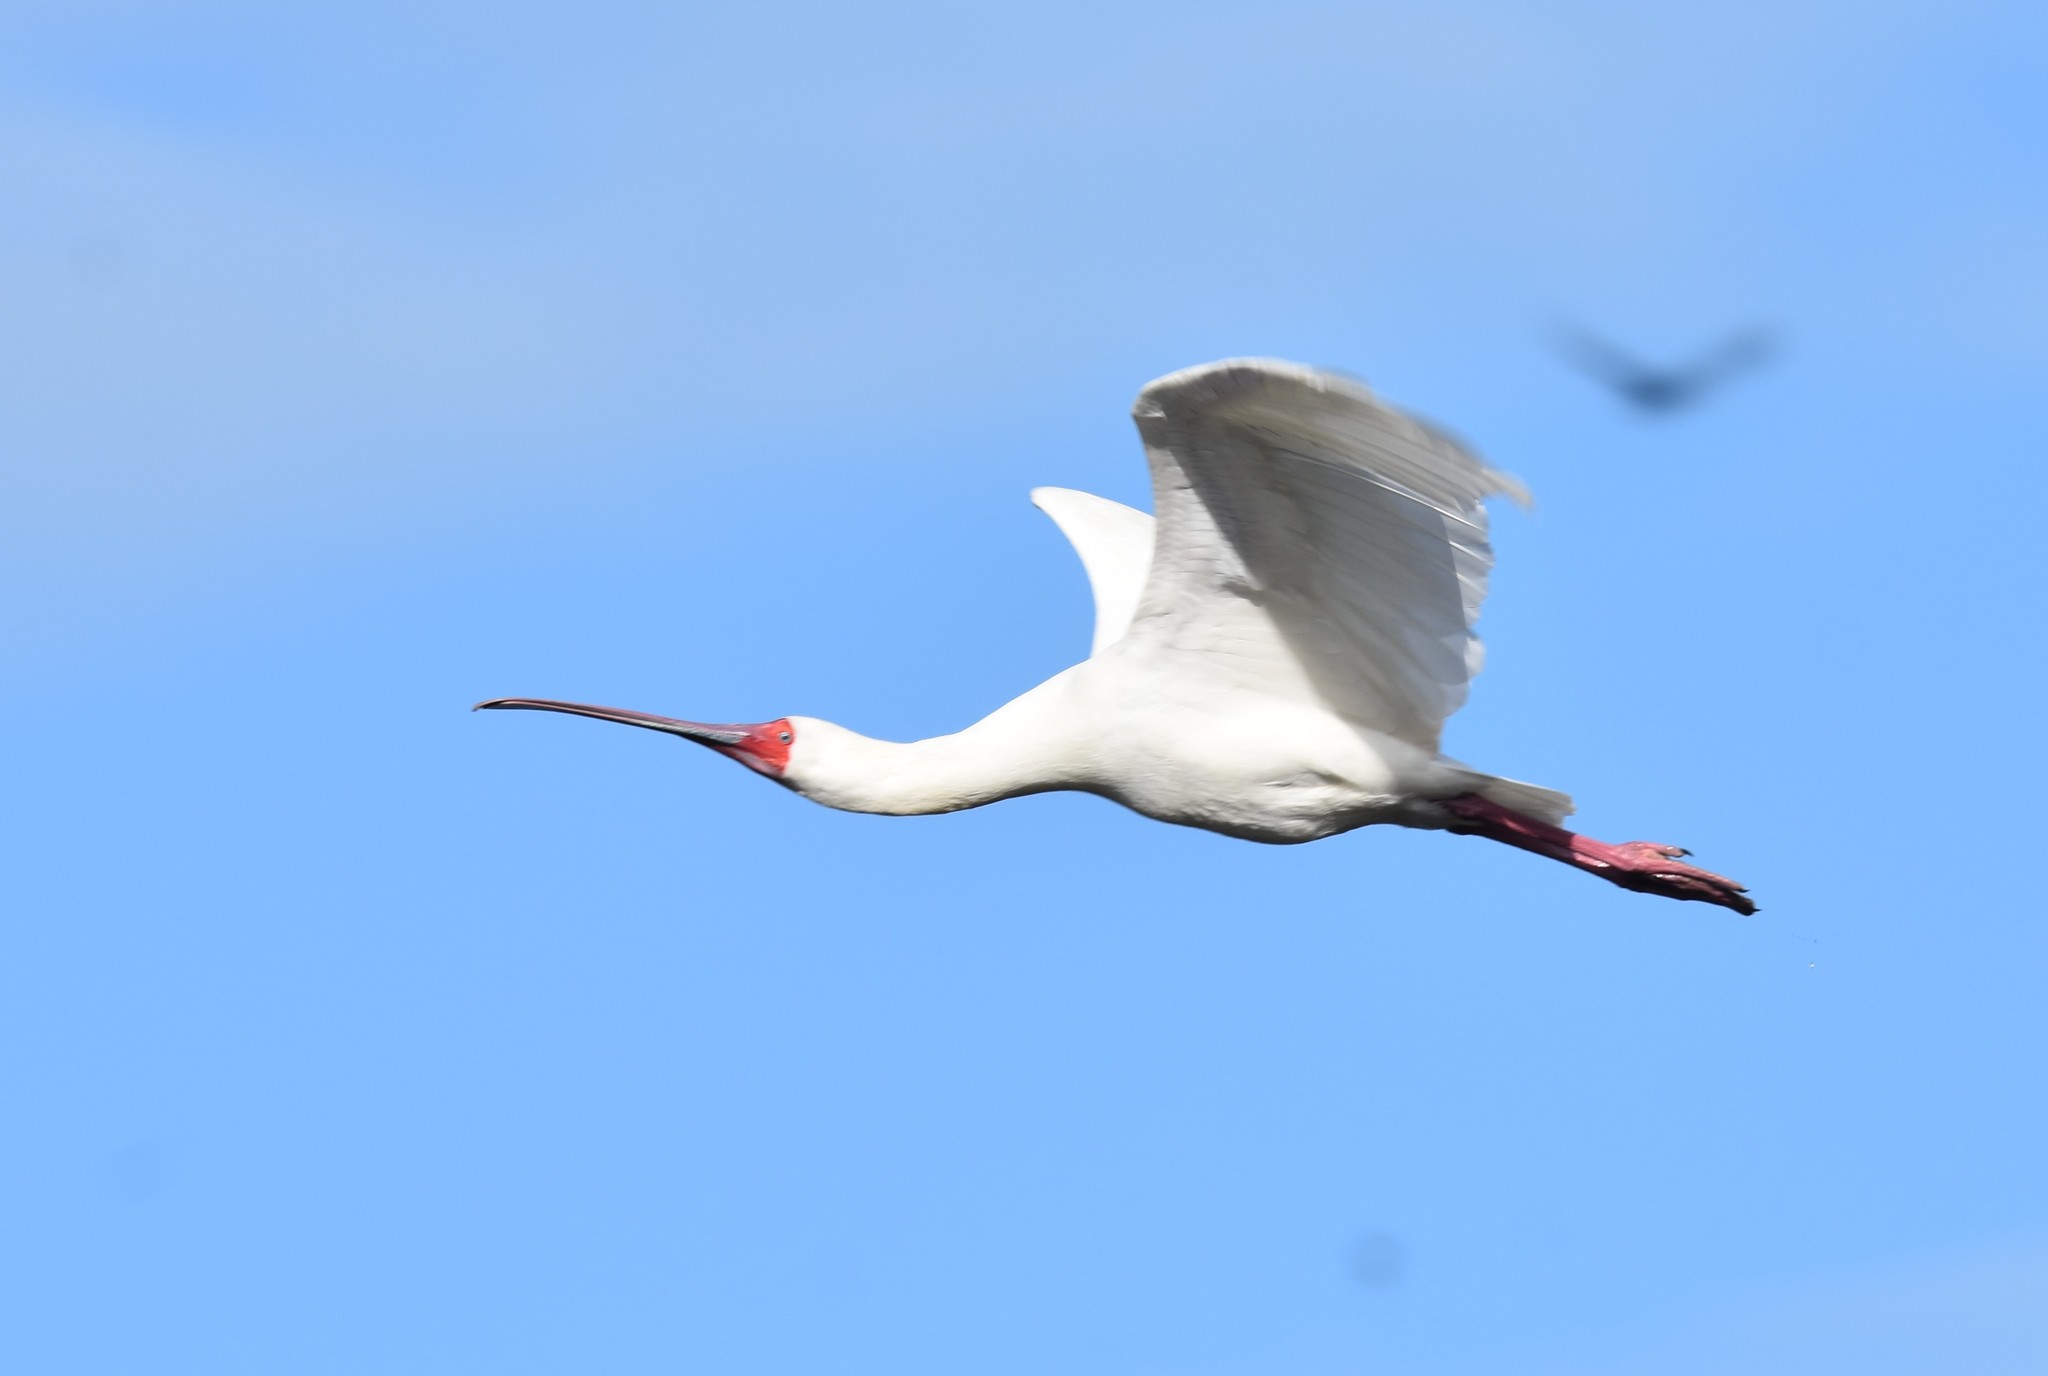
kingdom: Animalia
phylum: Chordata
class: Aves
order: Pelecaniformes
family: Threskiornithidae
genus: Platalea
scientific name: Platalea alba
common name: African spoonbill
